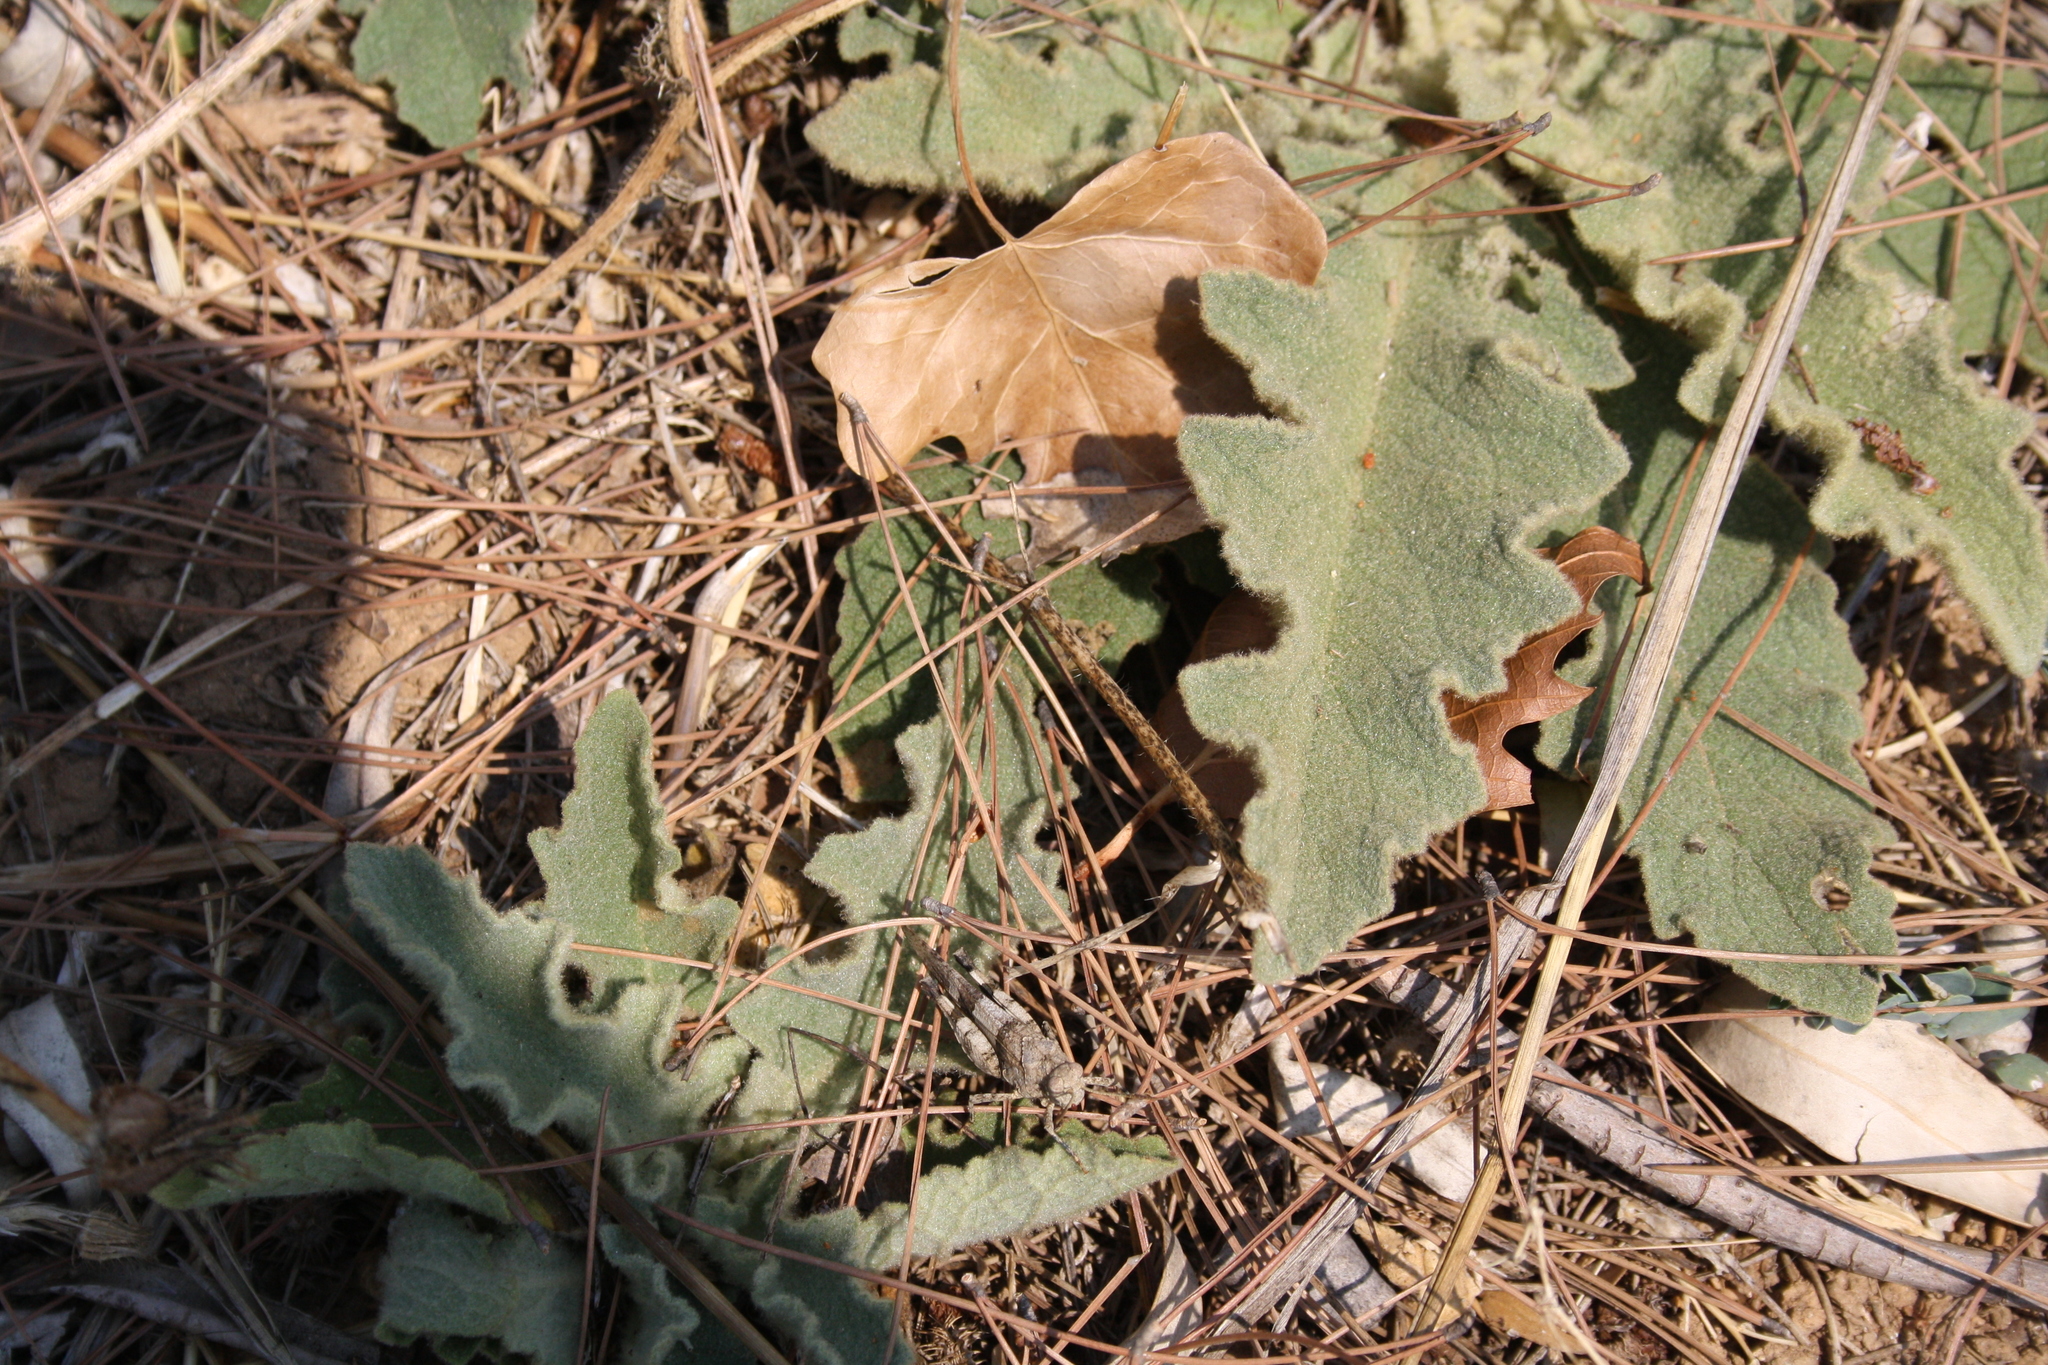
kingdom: Animalia
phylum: Arthropoda
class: Insecta
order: Orthoptera
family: Acrididae
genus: Oedipoda
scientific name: Oedipoda caerulescens
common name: Blue-winged grasshopper
